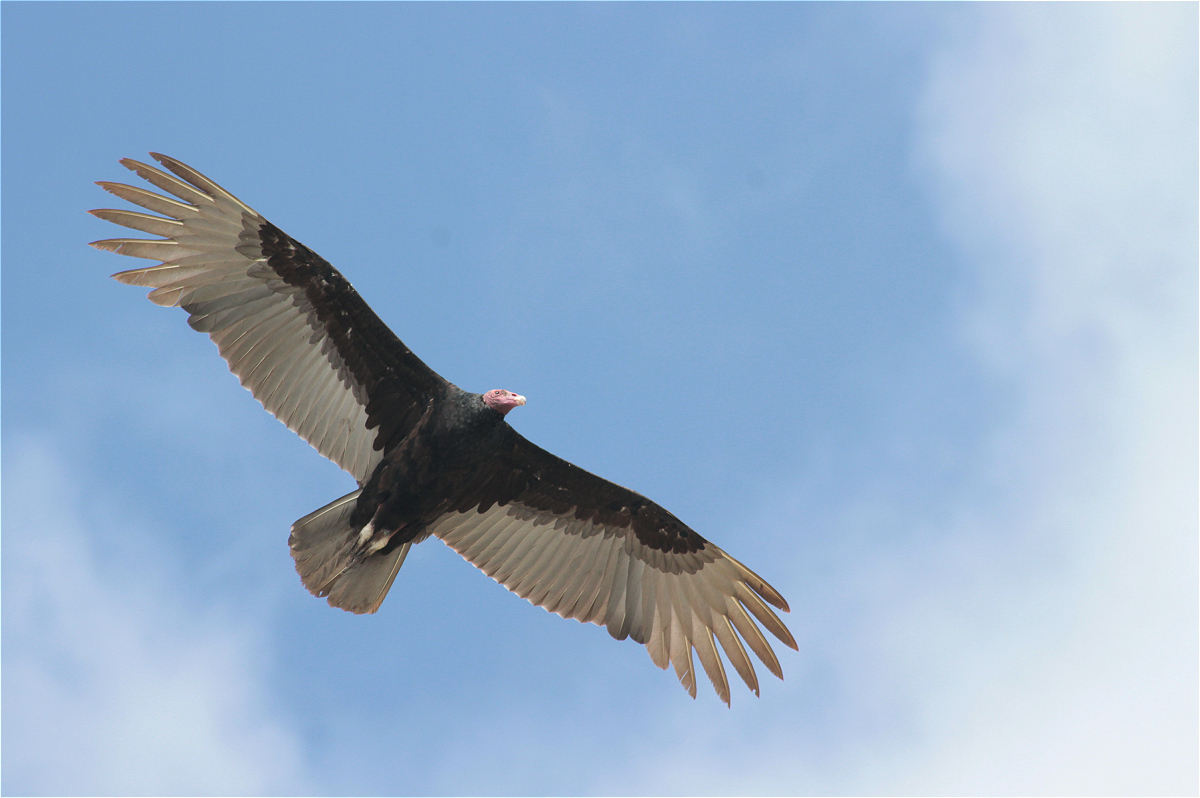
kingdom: Animalia
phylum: Chordata
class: Aves
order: Accipitriformes
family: Cathartidae
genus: Cathartes
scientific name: Cathartes aura
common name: Turkey vulture
